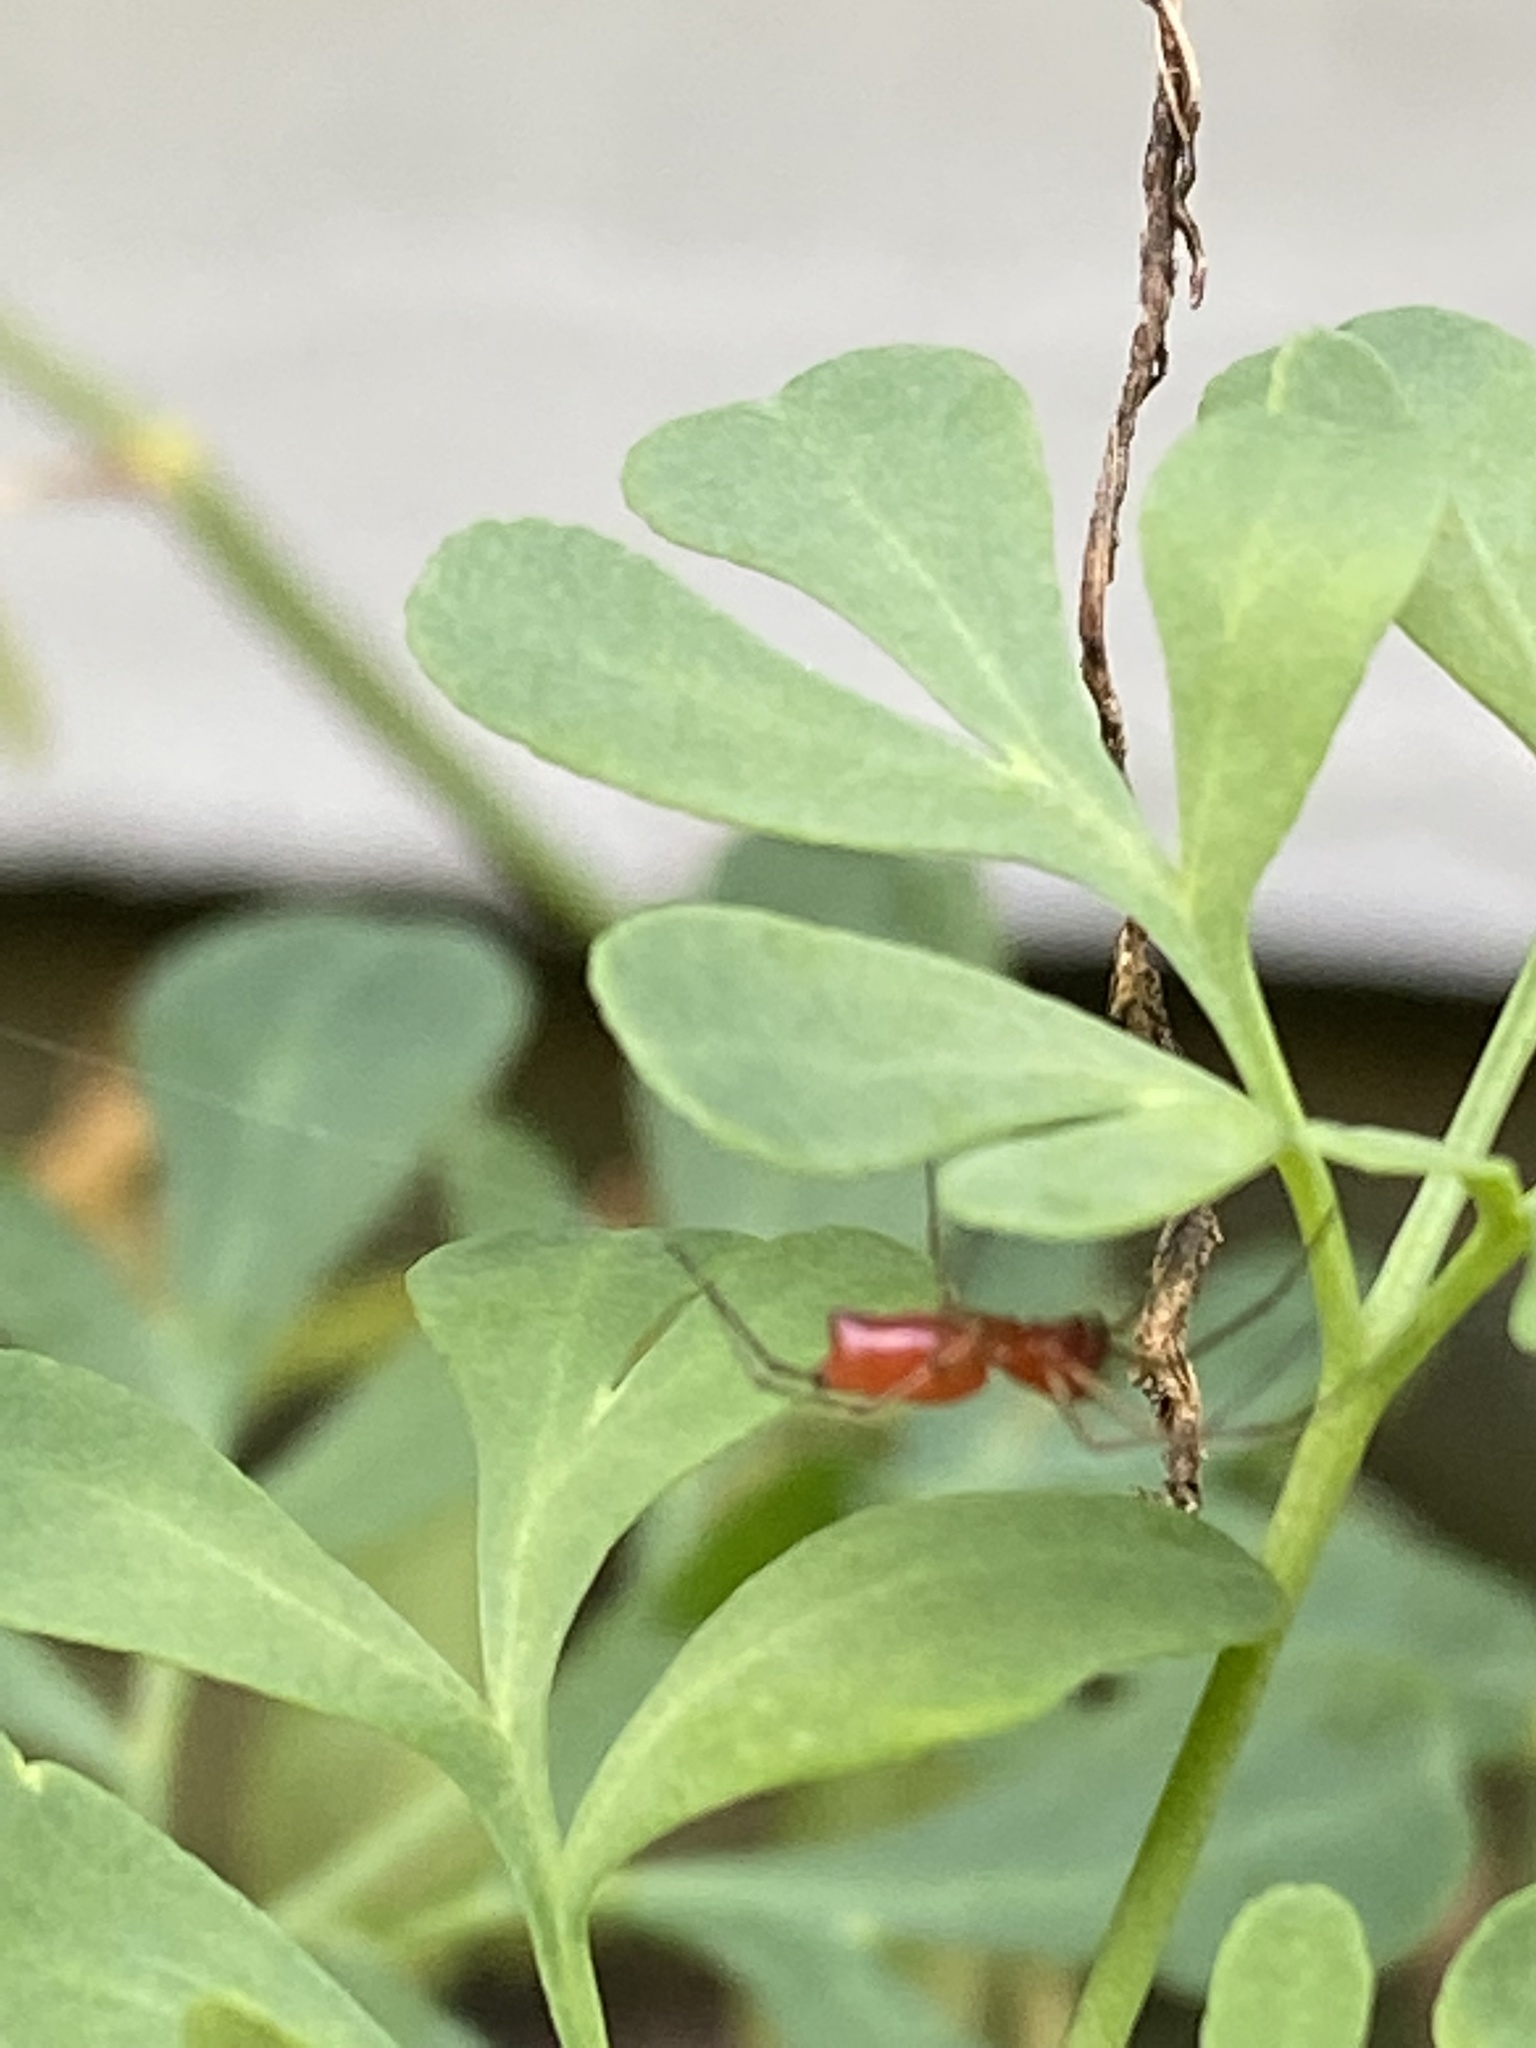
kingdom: Animalia
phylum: Arthropoda
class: Arachnida
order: Araneae
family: Linyphiidae
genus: Florinda
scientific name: Florinda coccinea
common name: Black-tailed red sheetweaver
